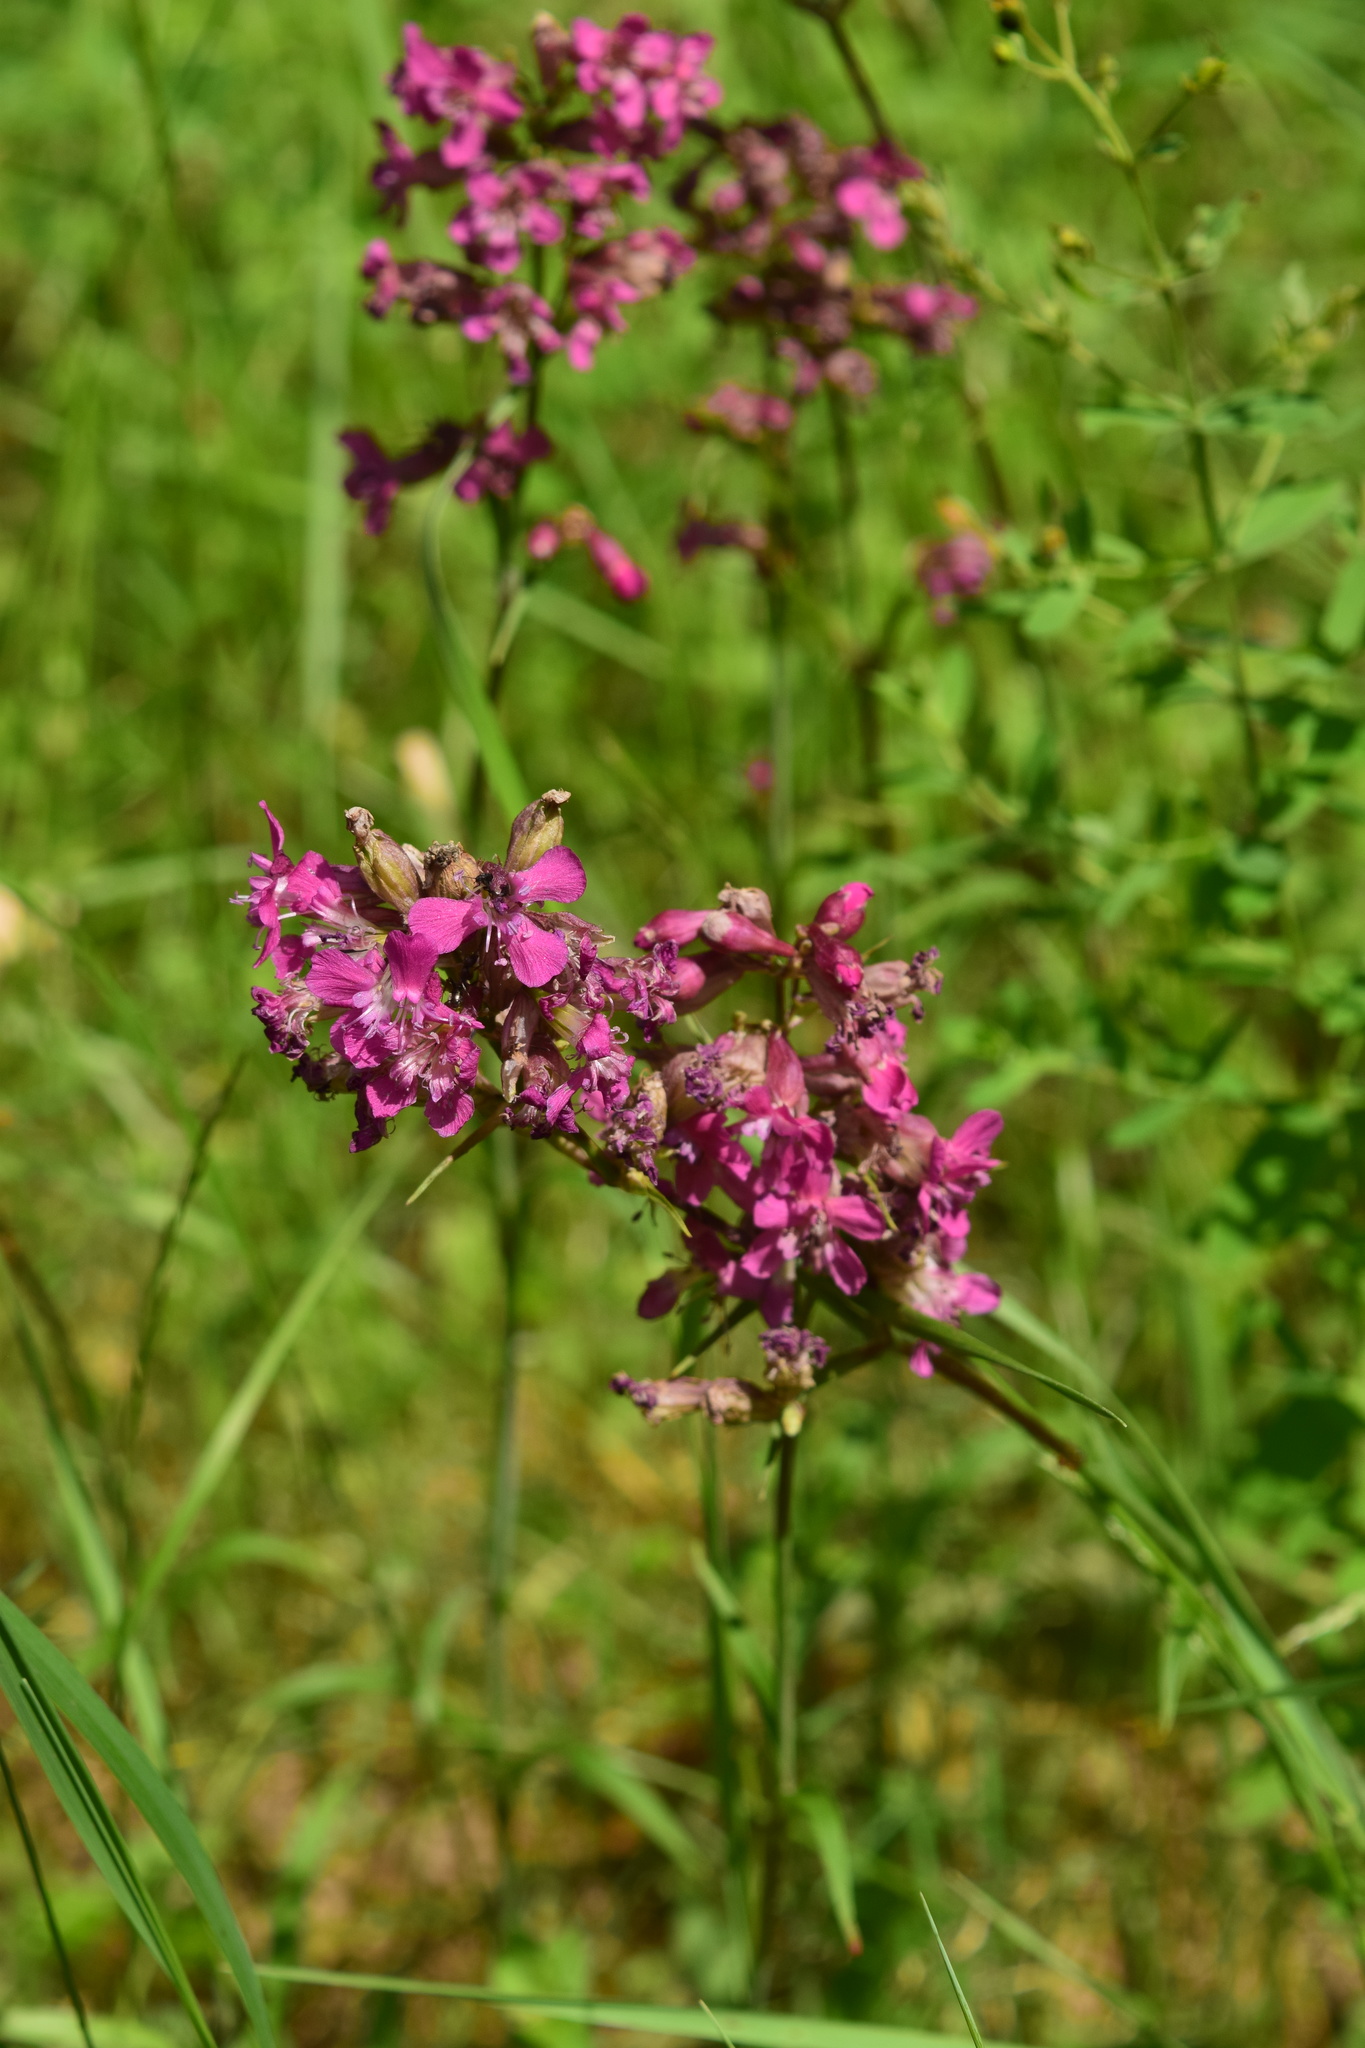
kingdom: Plantae
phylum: Tracheophyta
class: Magnoliopsida
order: Caryophyllales
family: Caryophyllaceae
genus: Viscaria
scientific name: Viscaria vulgaris
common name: Clammy campion
